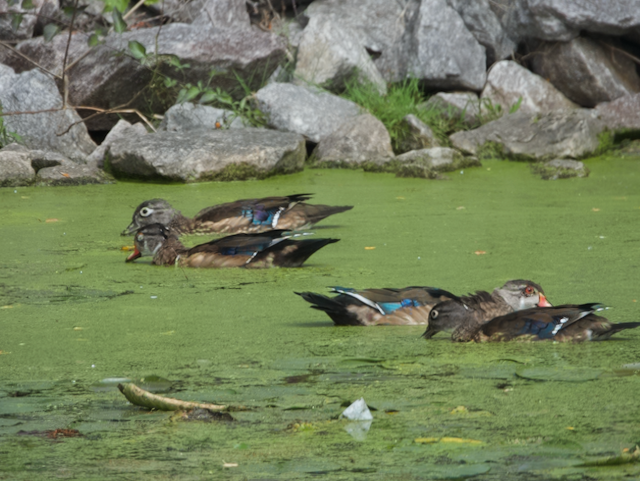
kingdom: Animalia
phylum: Chordata
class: Aves
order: Anseriformes
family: Anatidae
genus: Aix
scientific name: Aix sponsa
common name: Wood duck
